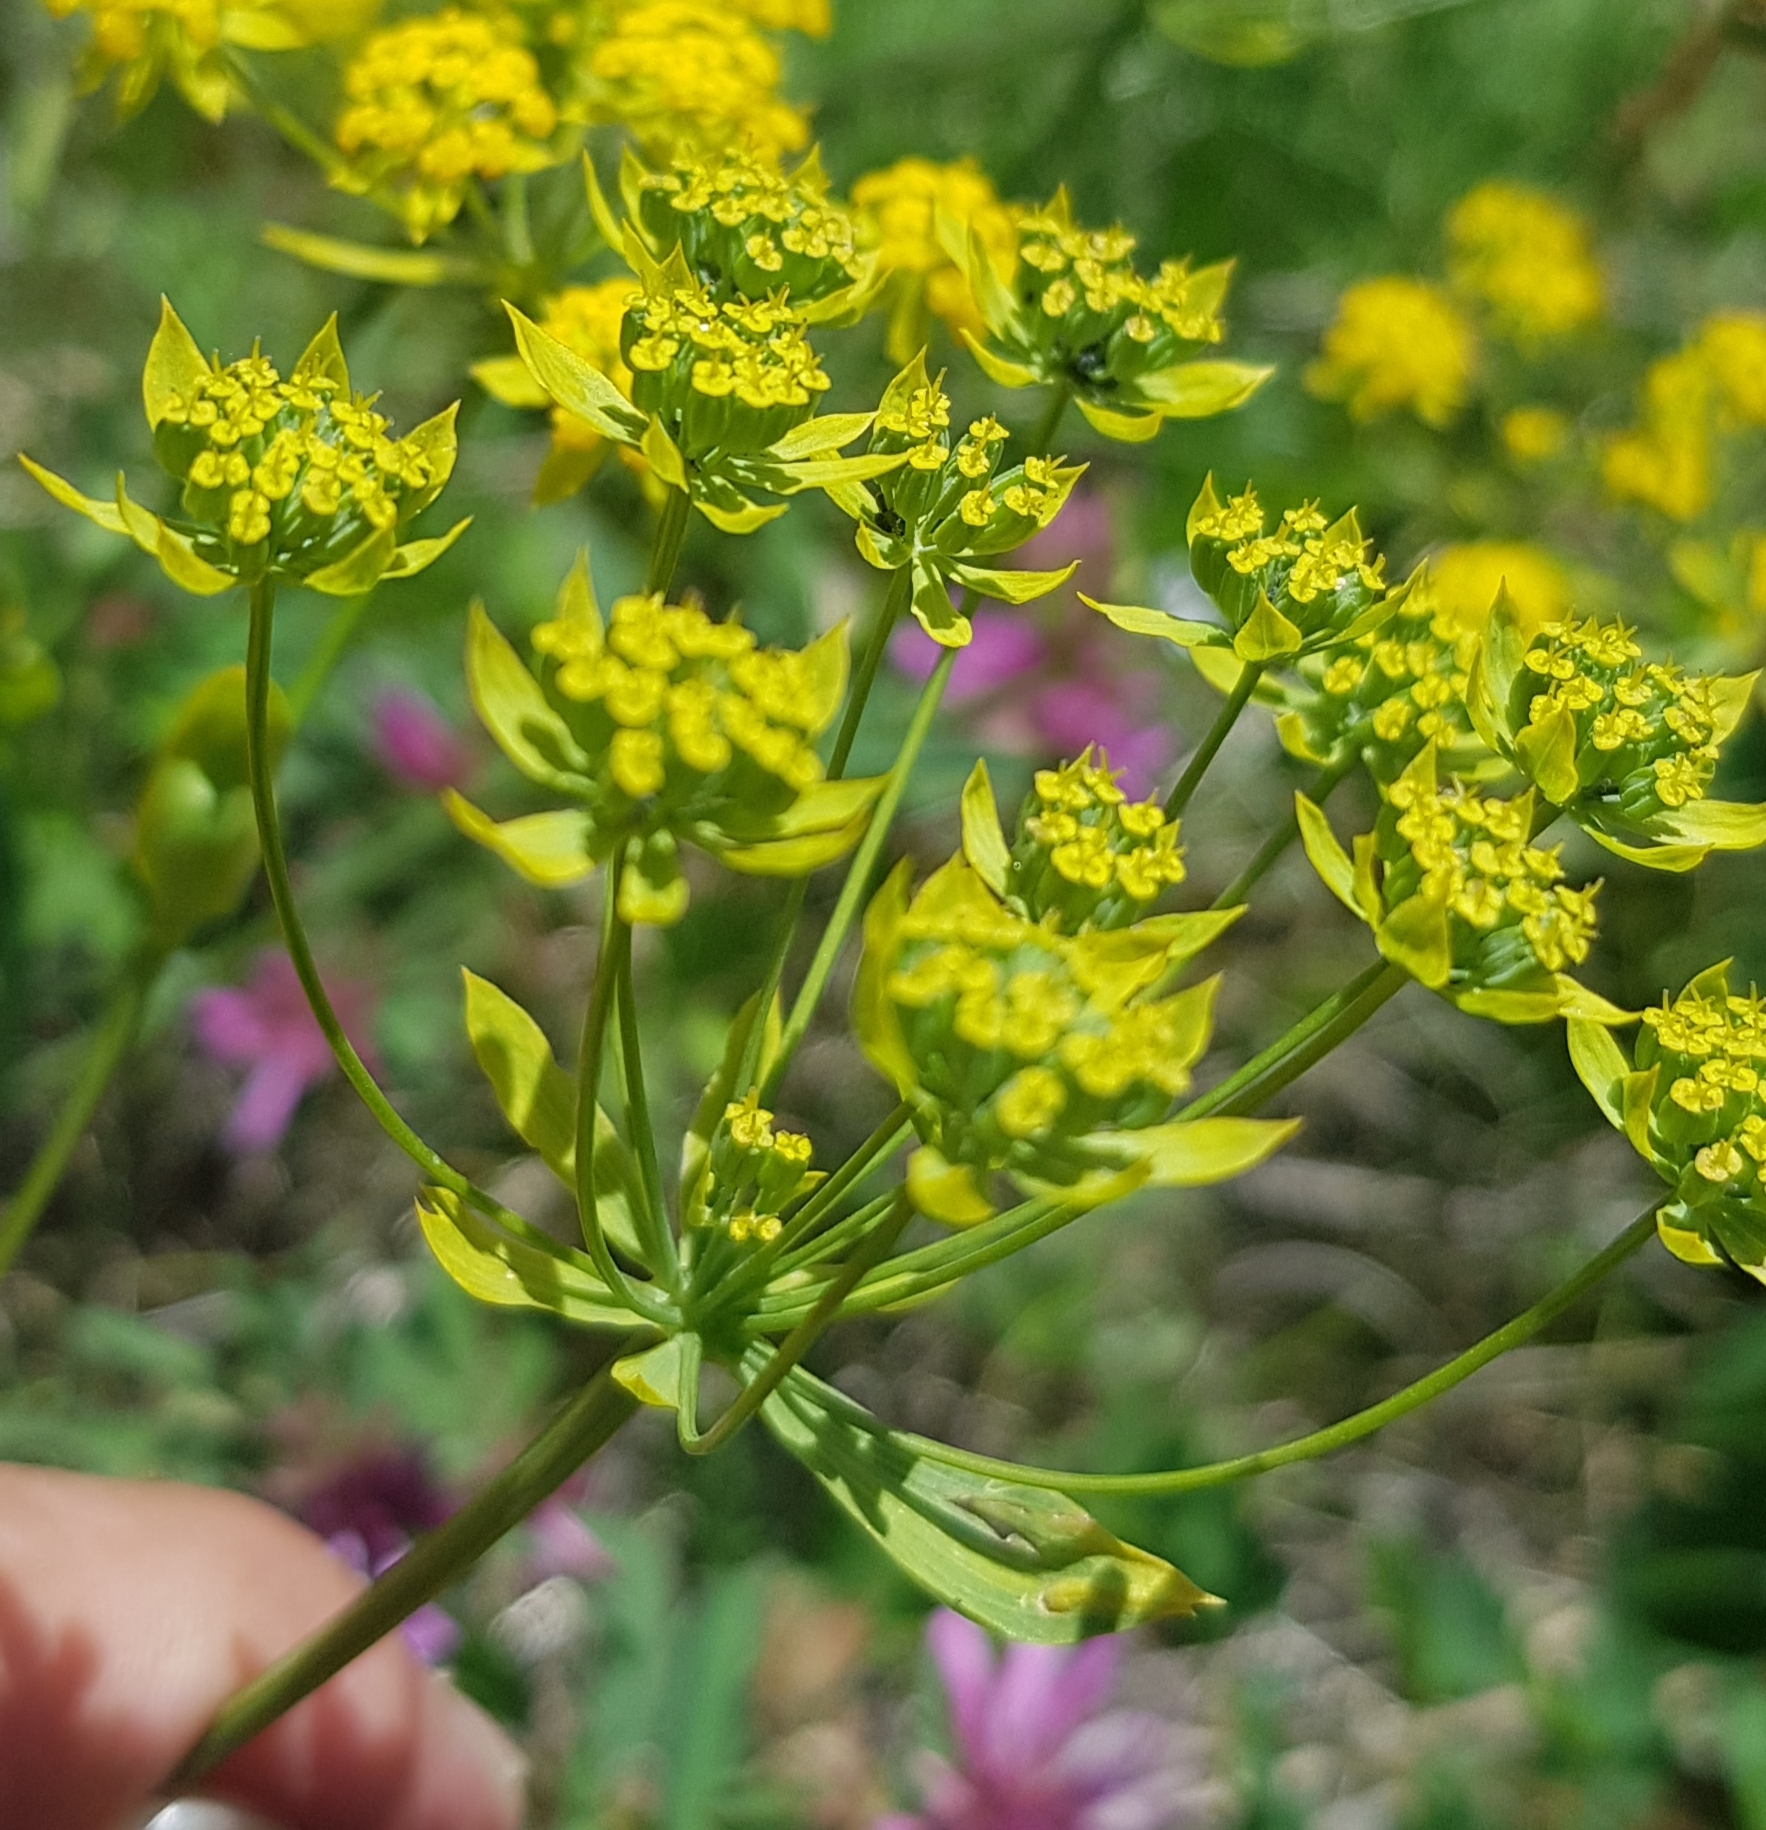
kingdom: Plantae
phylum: Tracheophyta
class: Magnoliopsida
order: Apiales
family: Apiaceae
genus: Bupleurum
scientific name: Bupleurum sibiricum
